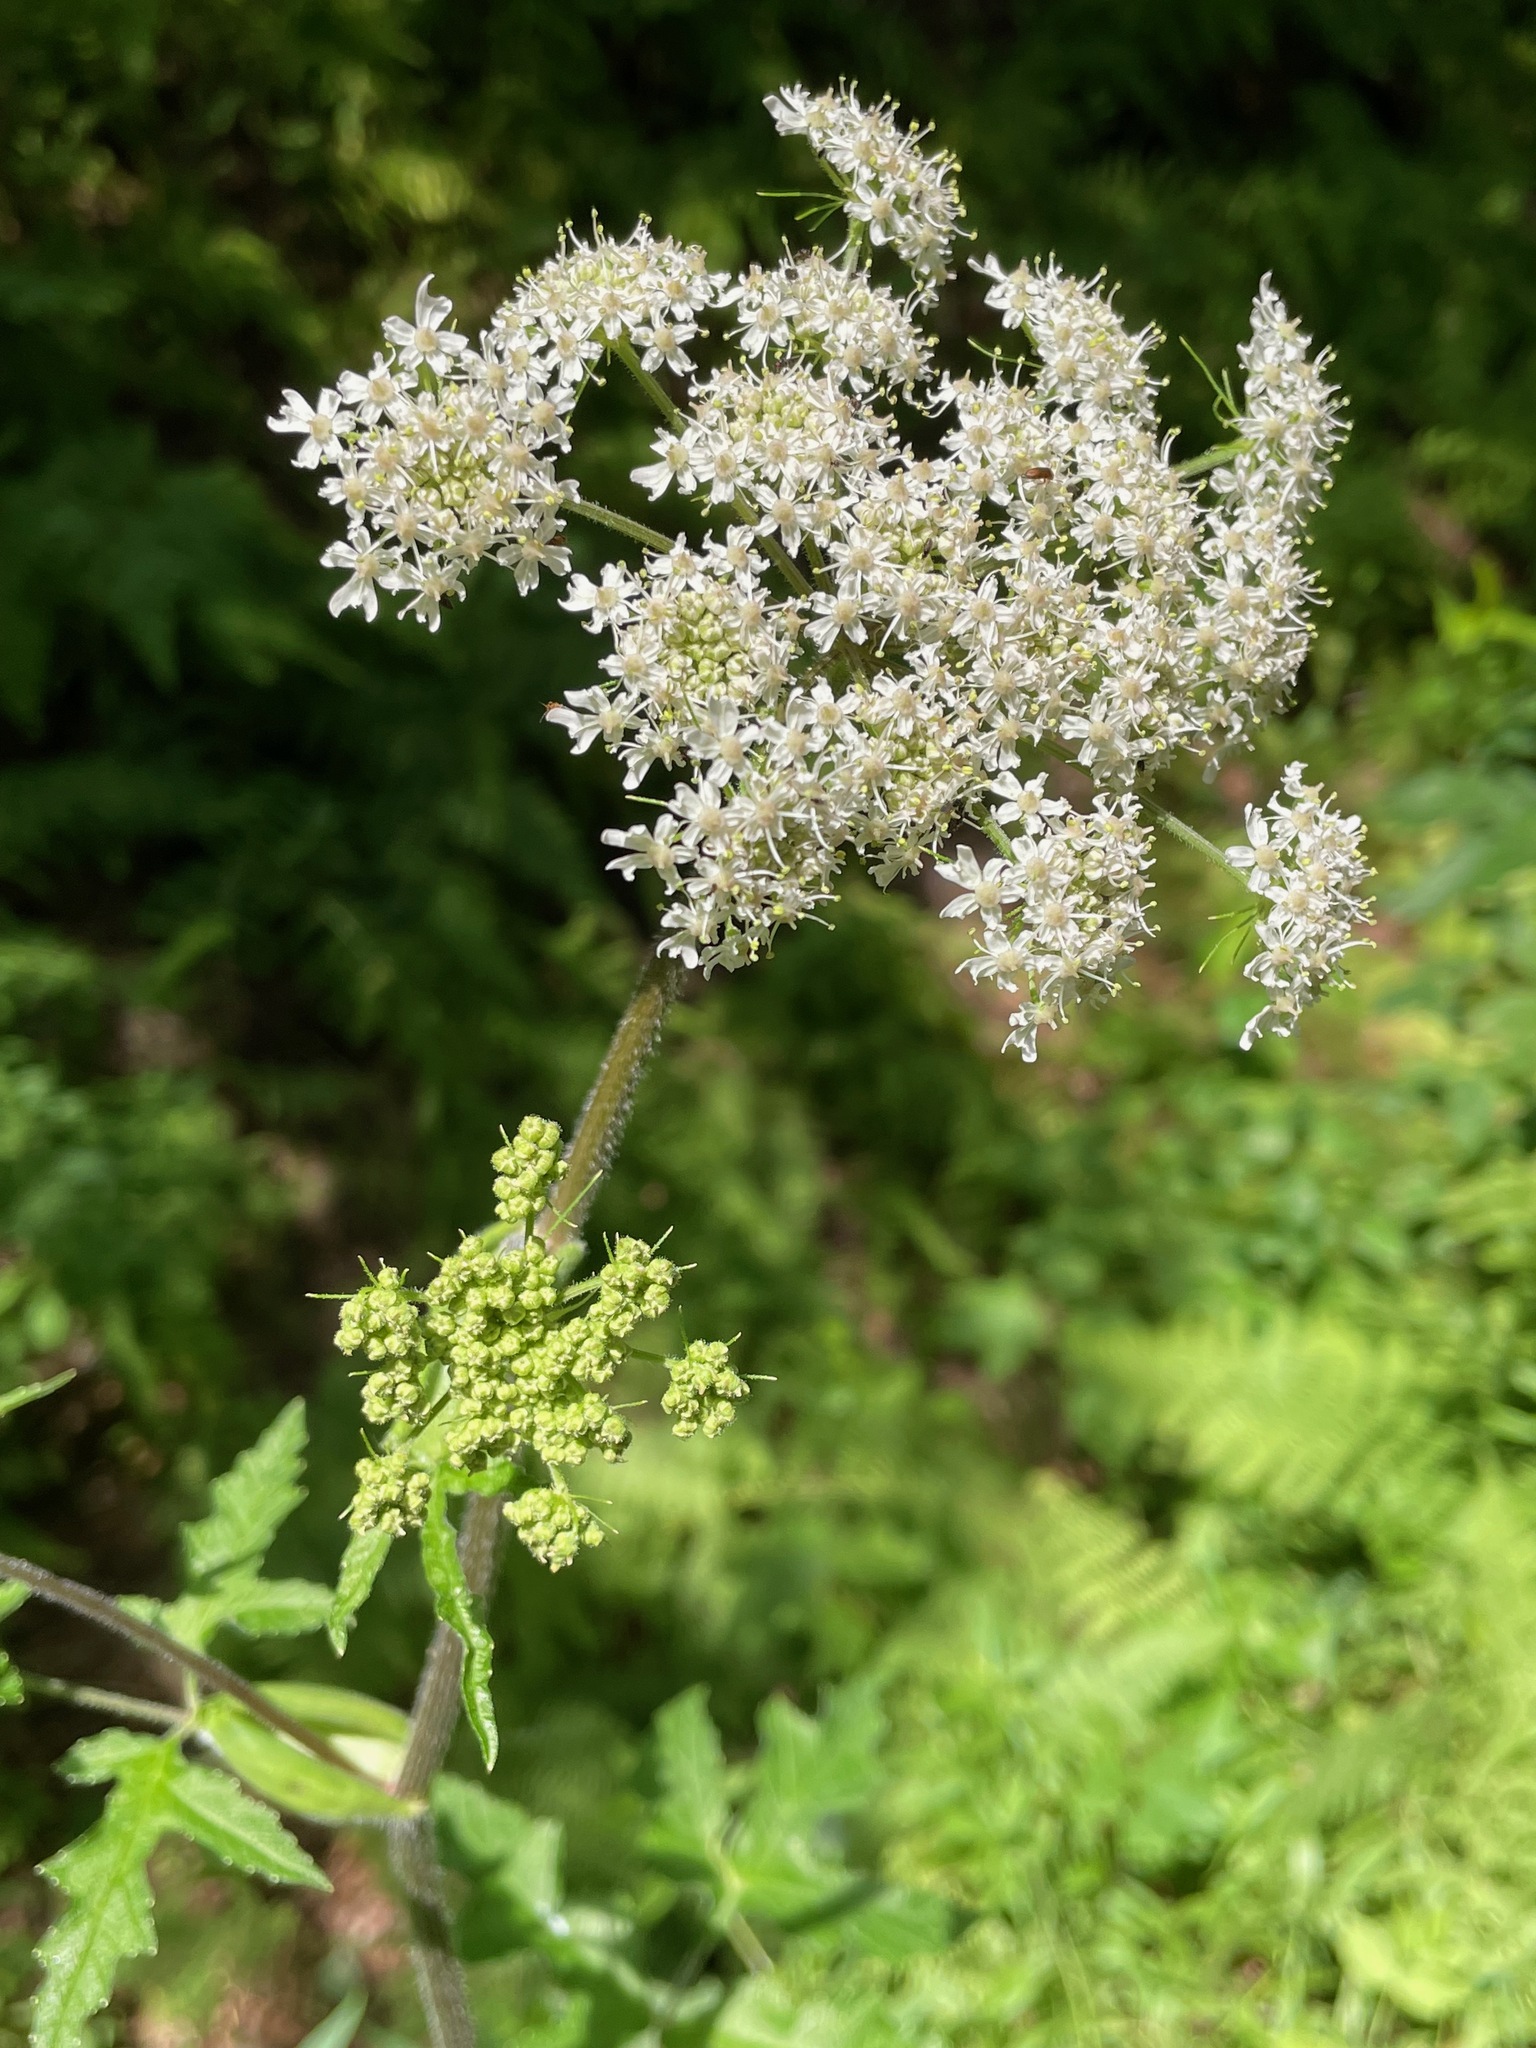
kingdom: Plantae
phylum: Tracheophyta
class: Magnoliopsida
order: Apiales
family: Apiaceae
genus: Heracleum
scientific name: Heracleum sphondylium
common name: Hogweed
